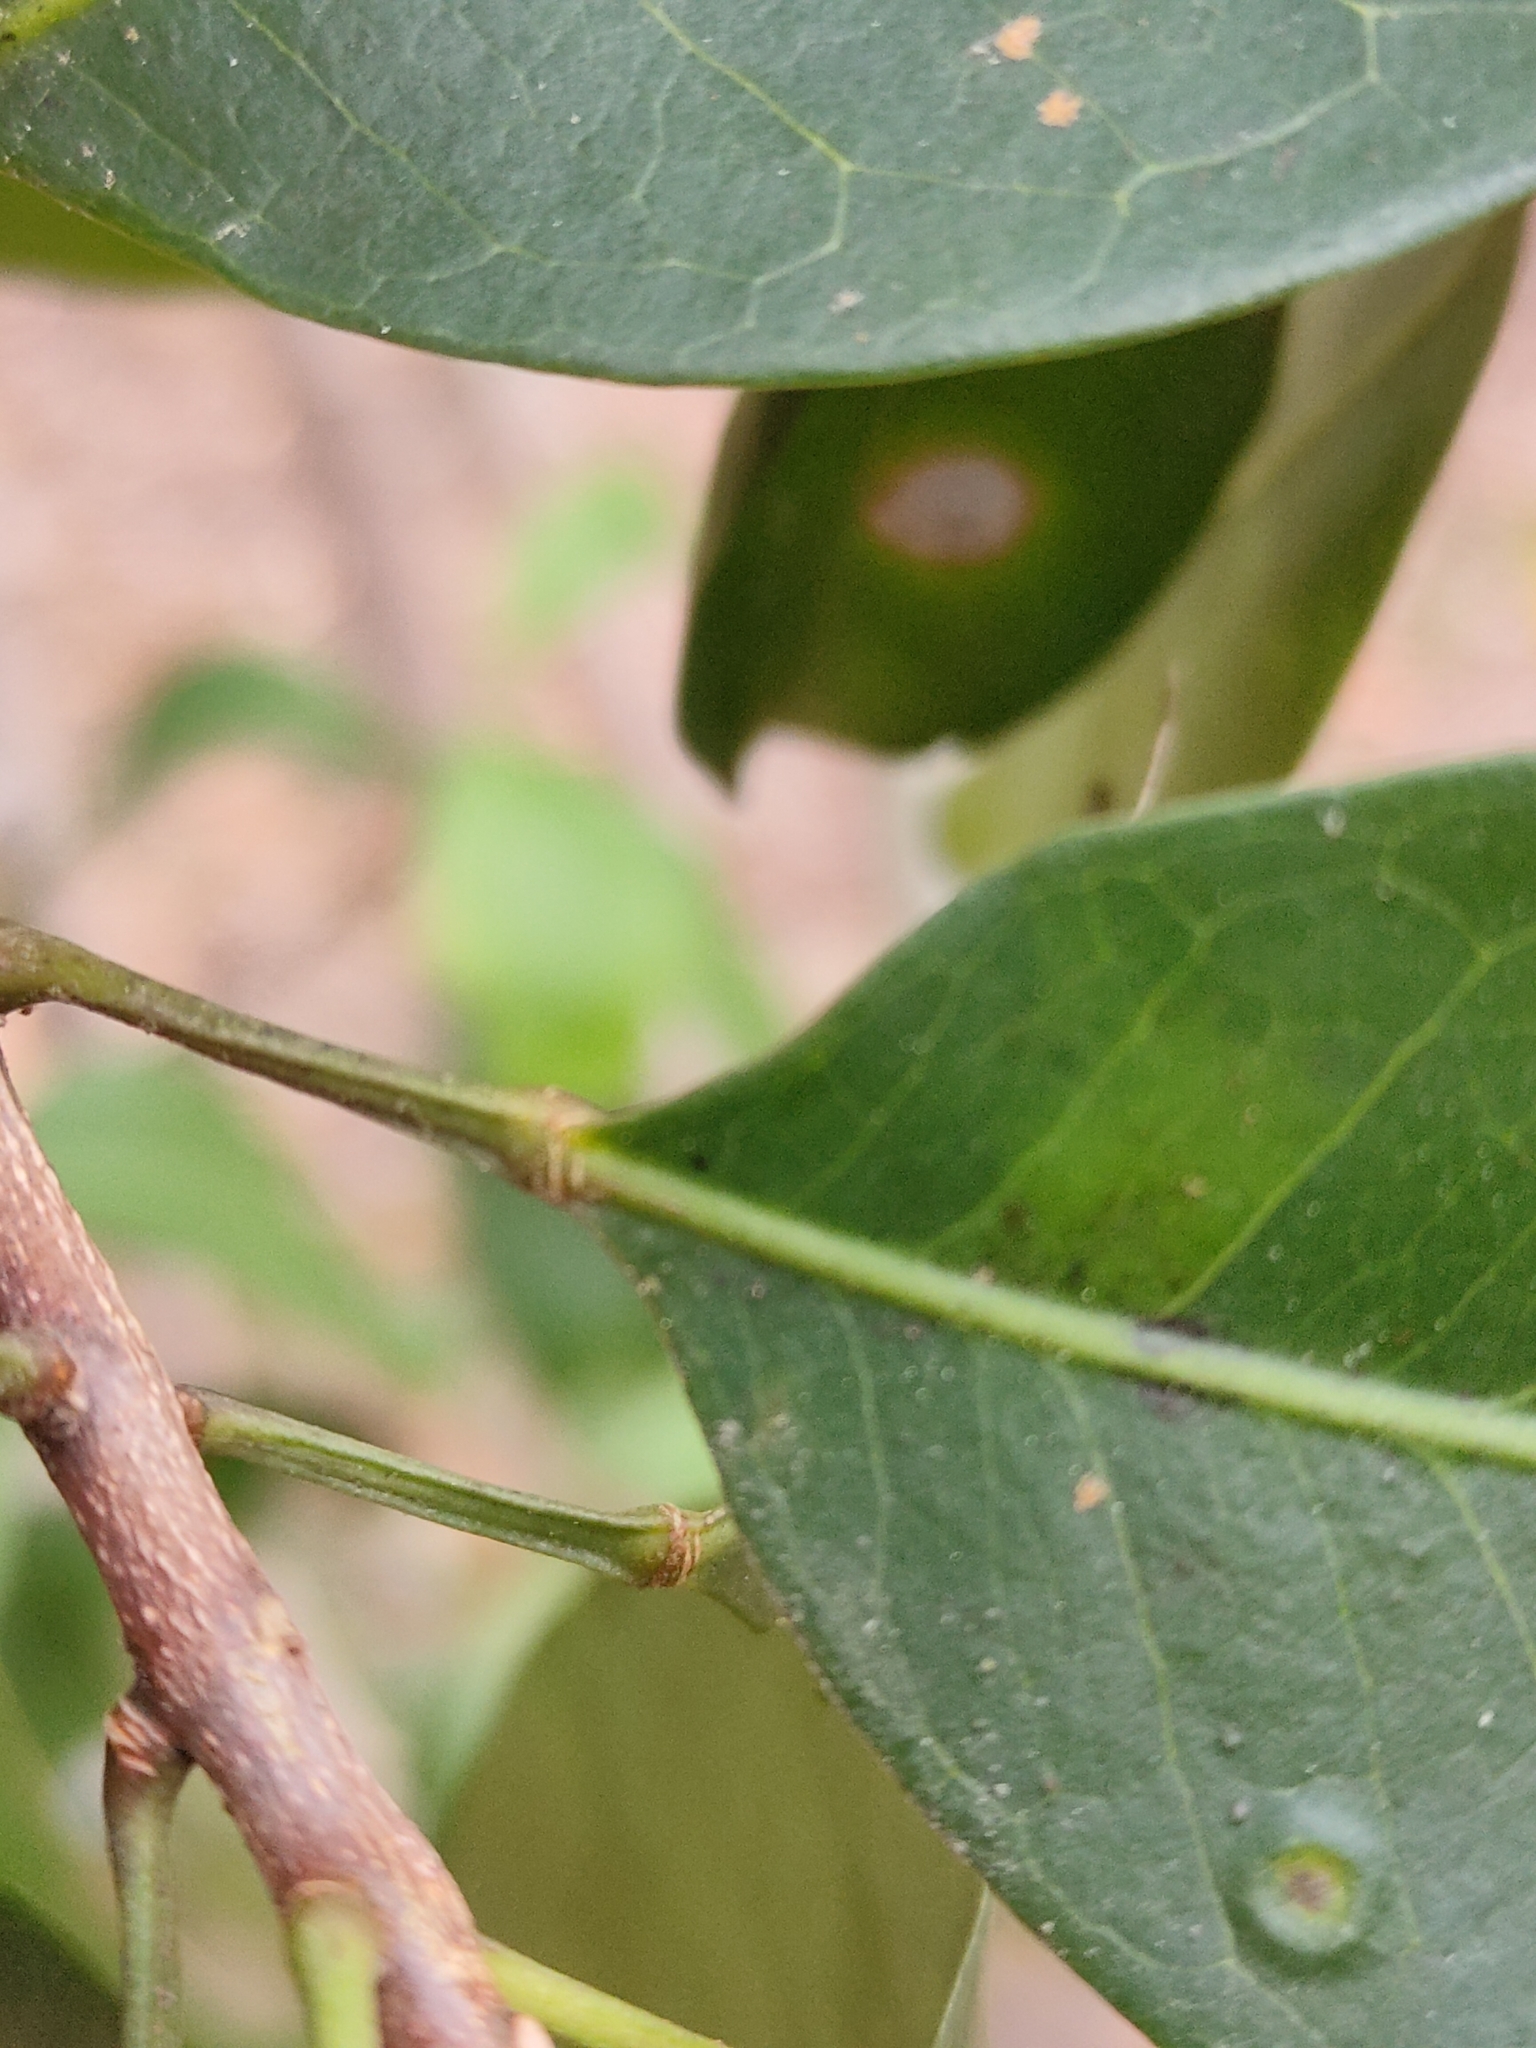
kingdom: Plantae
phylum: Tracheophyta
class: Magnoliopsida
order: Sapindales
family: Rutaceae
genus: Acronychia
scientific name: Acronychia imperforata
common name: Beach acronychia
